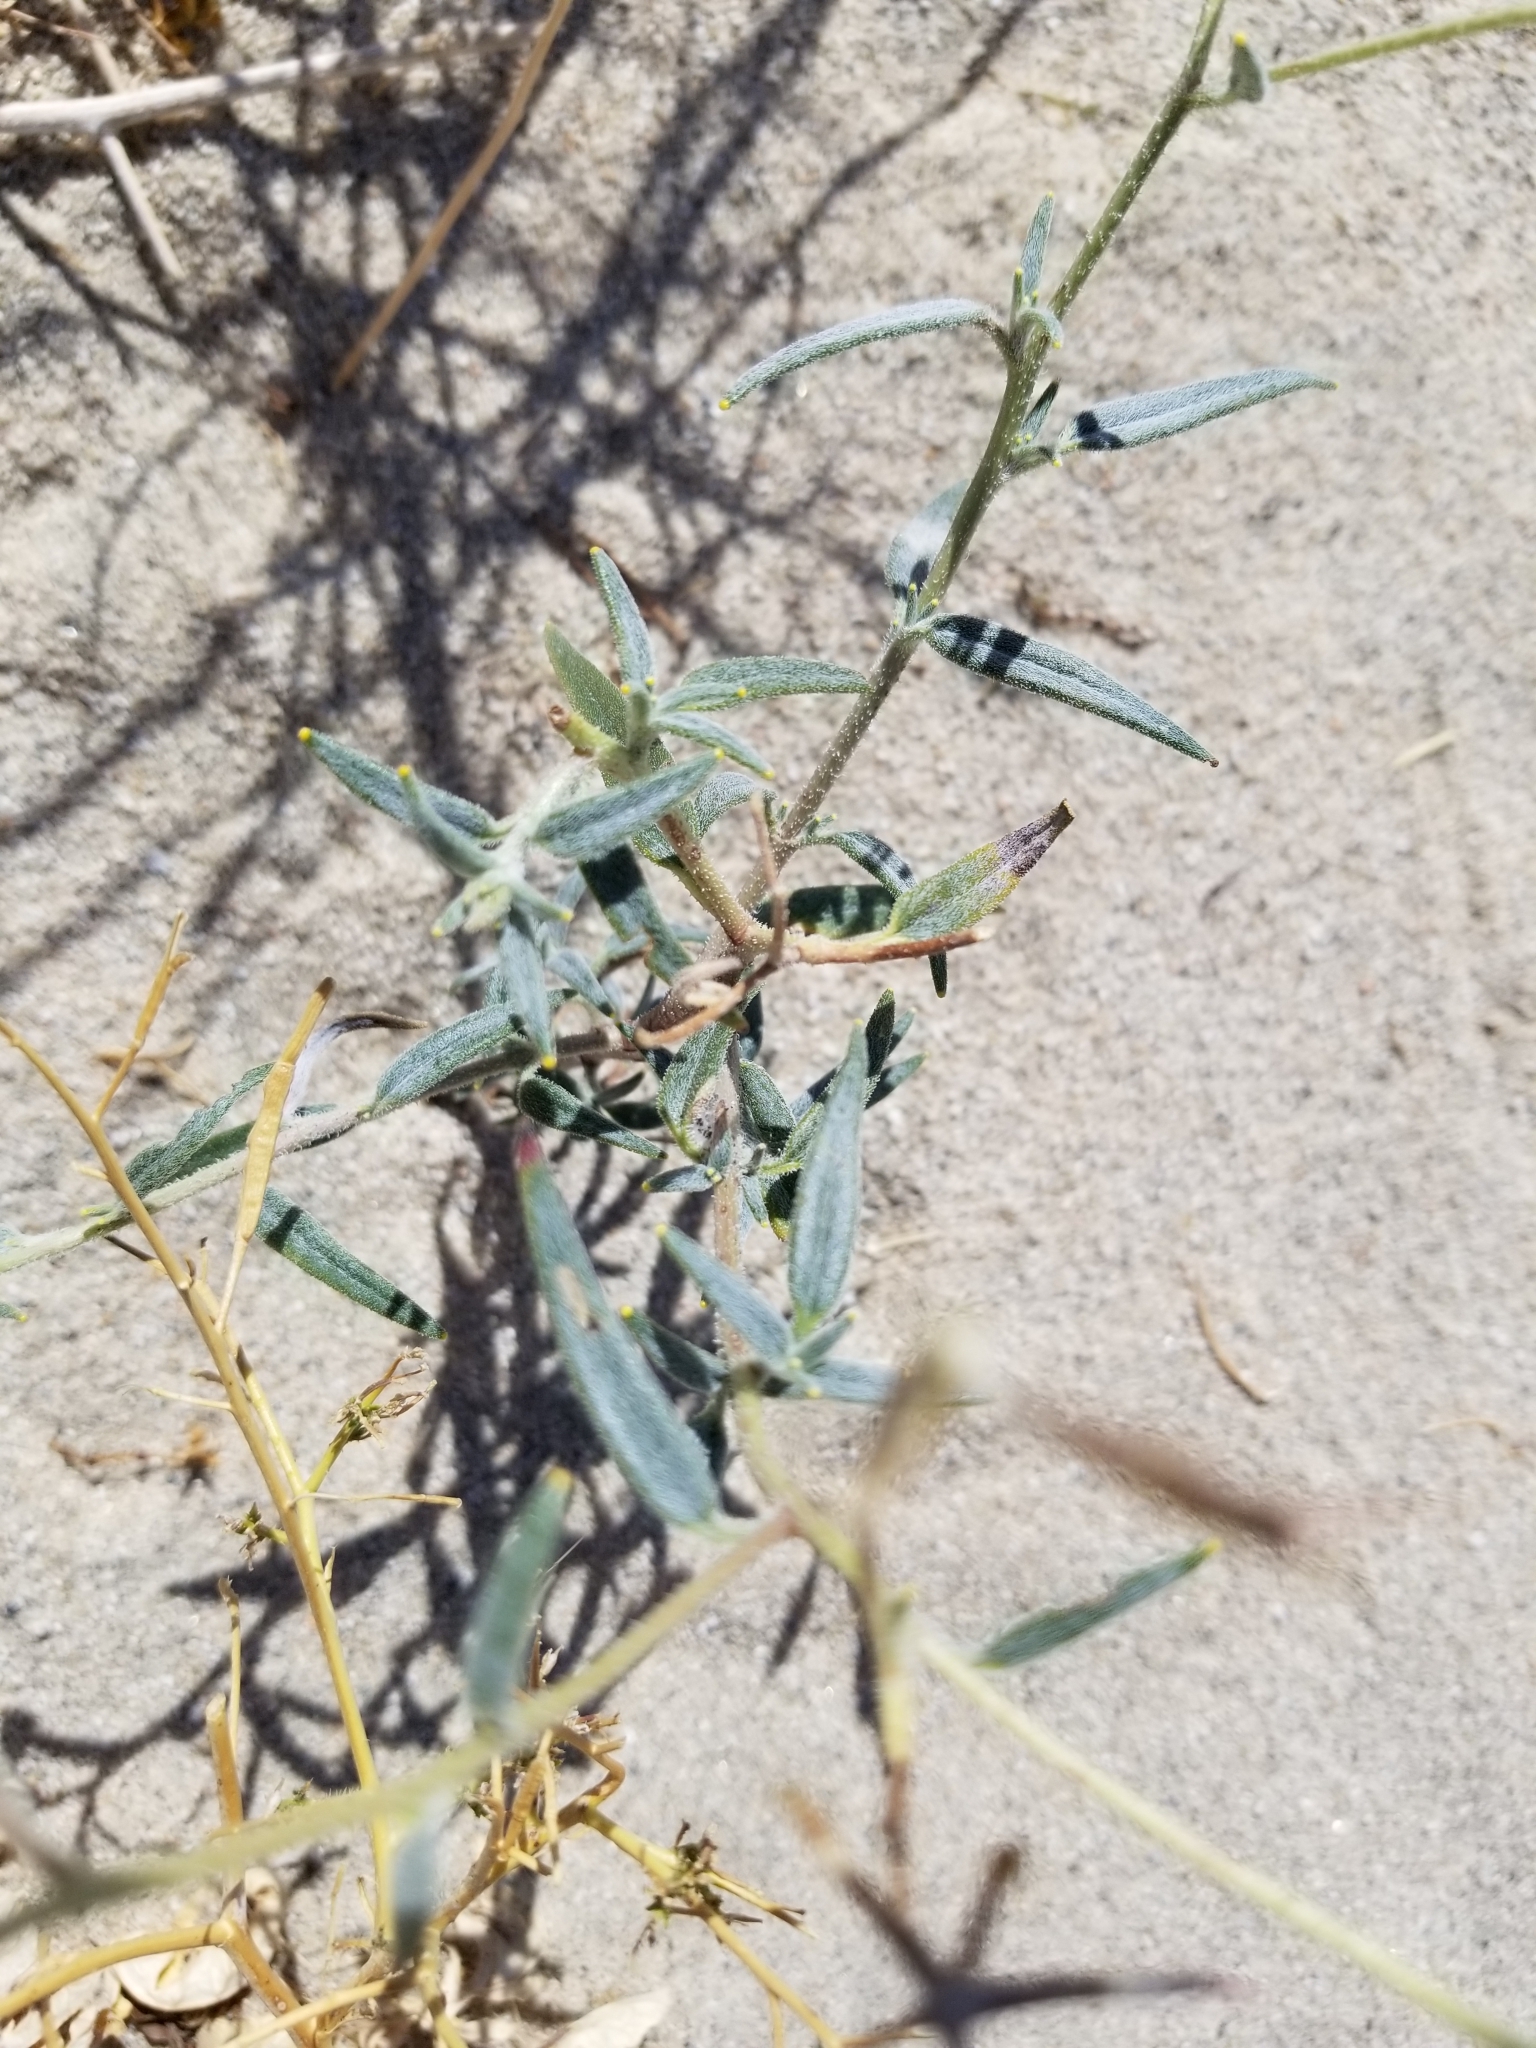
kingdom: Plantae
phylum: Tracheophyta
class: Magnoliopsida
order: Asterales
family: Asteraceae
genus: Palafoxia
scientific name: Palafoxia arida
